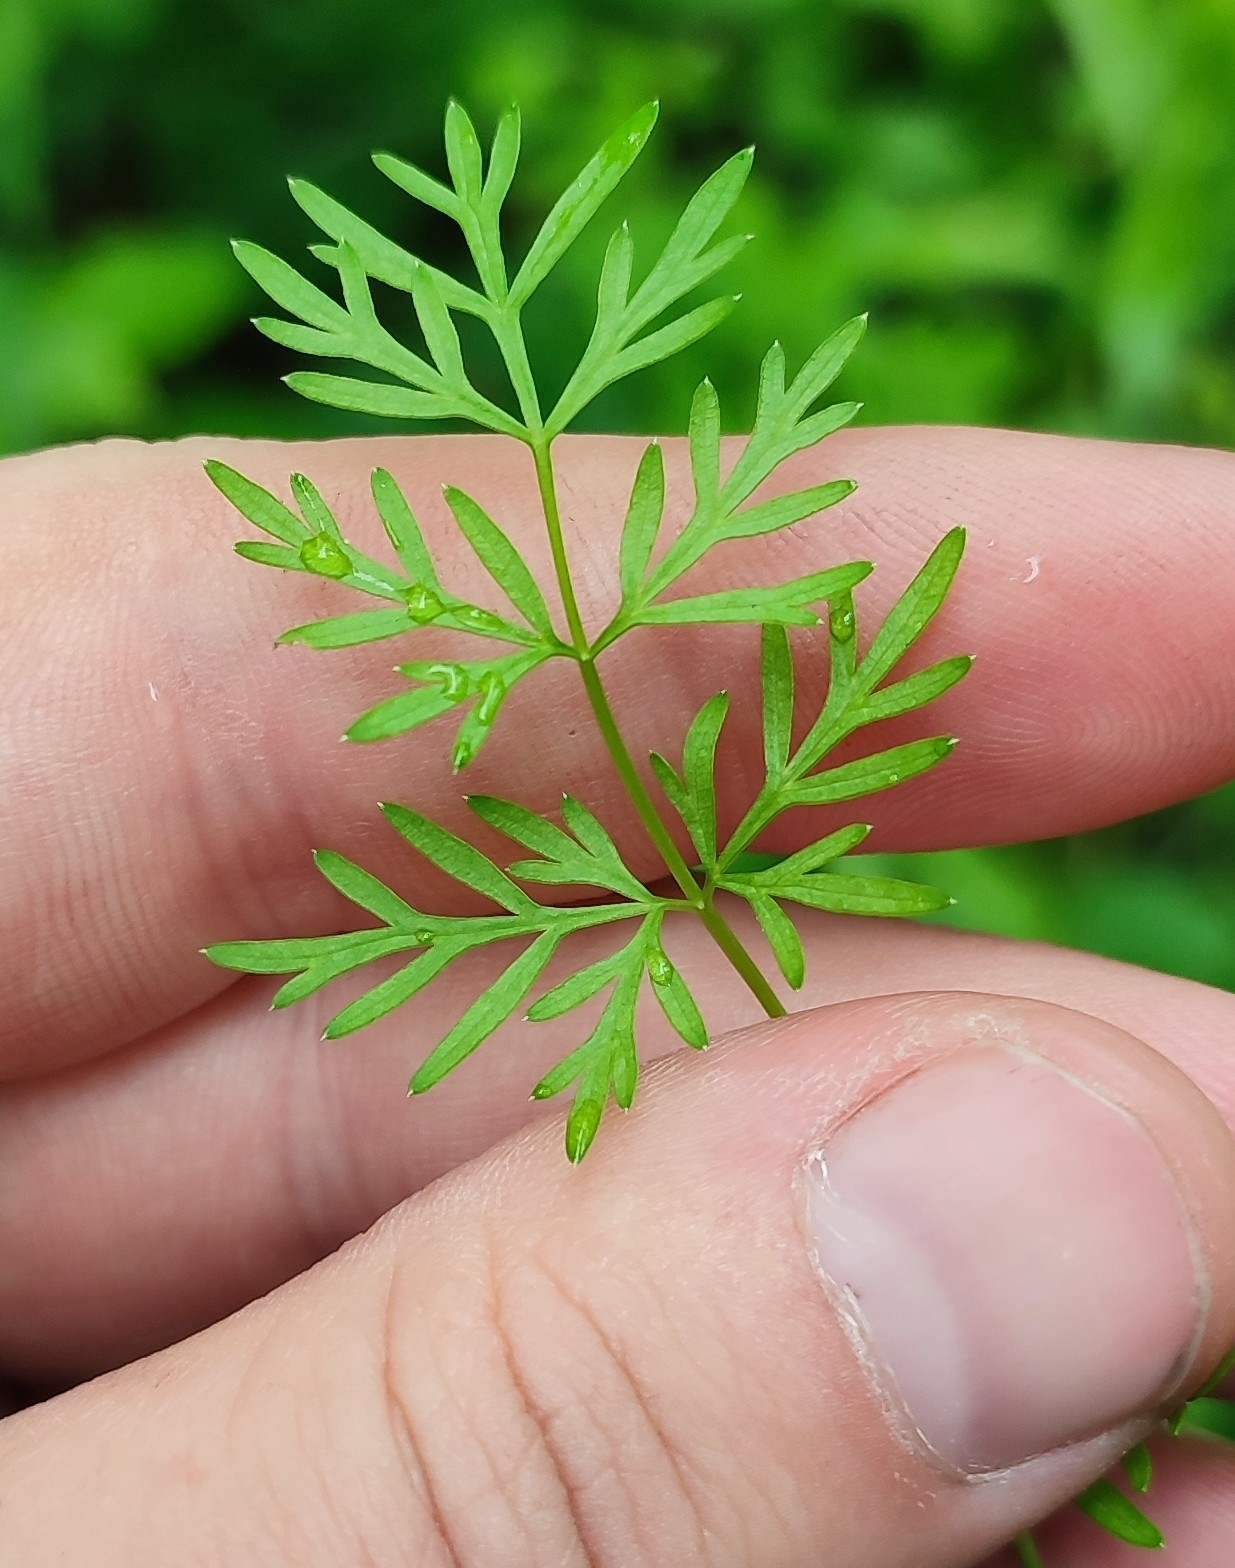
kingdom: Plantae
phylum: Tracheophyta
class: Magnoliopsida
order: Apiales
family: Apiaceae
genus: Kadenia
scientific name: Kadenia dubia
